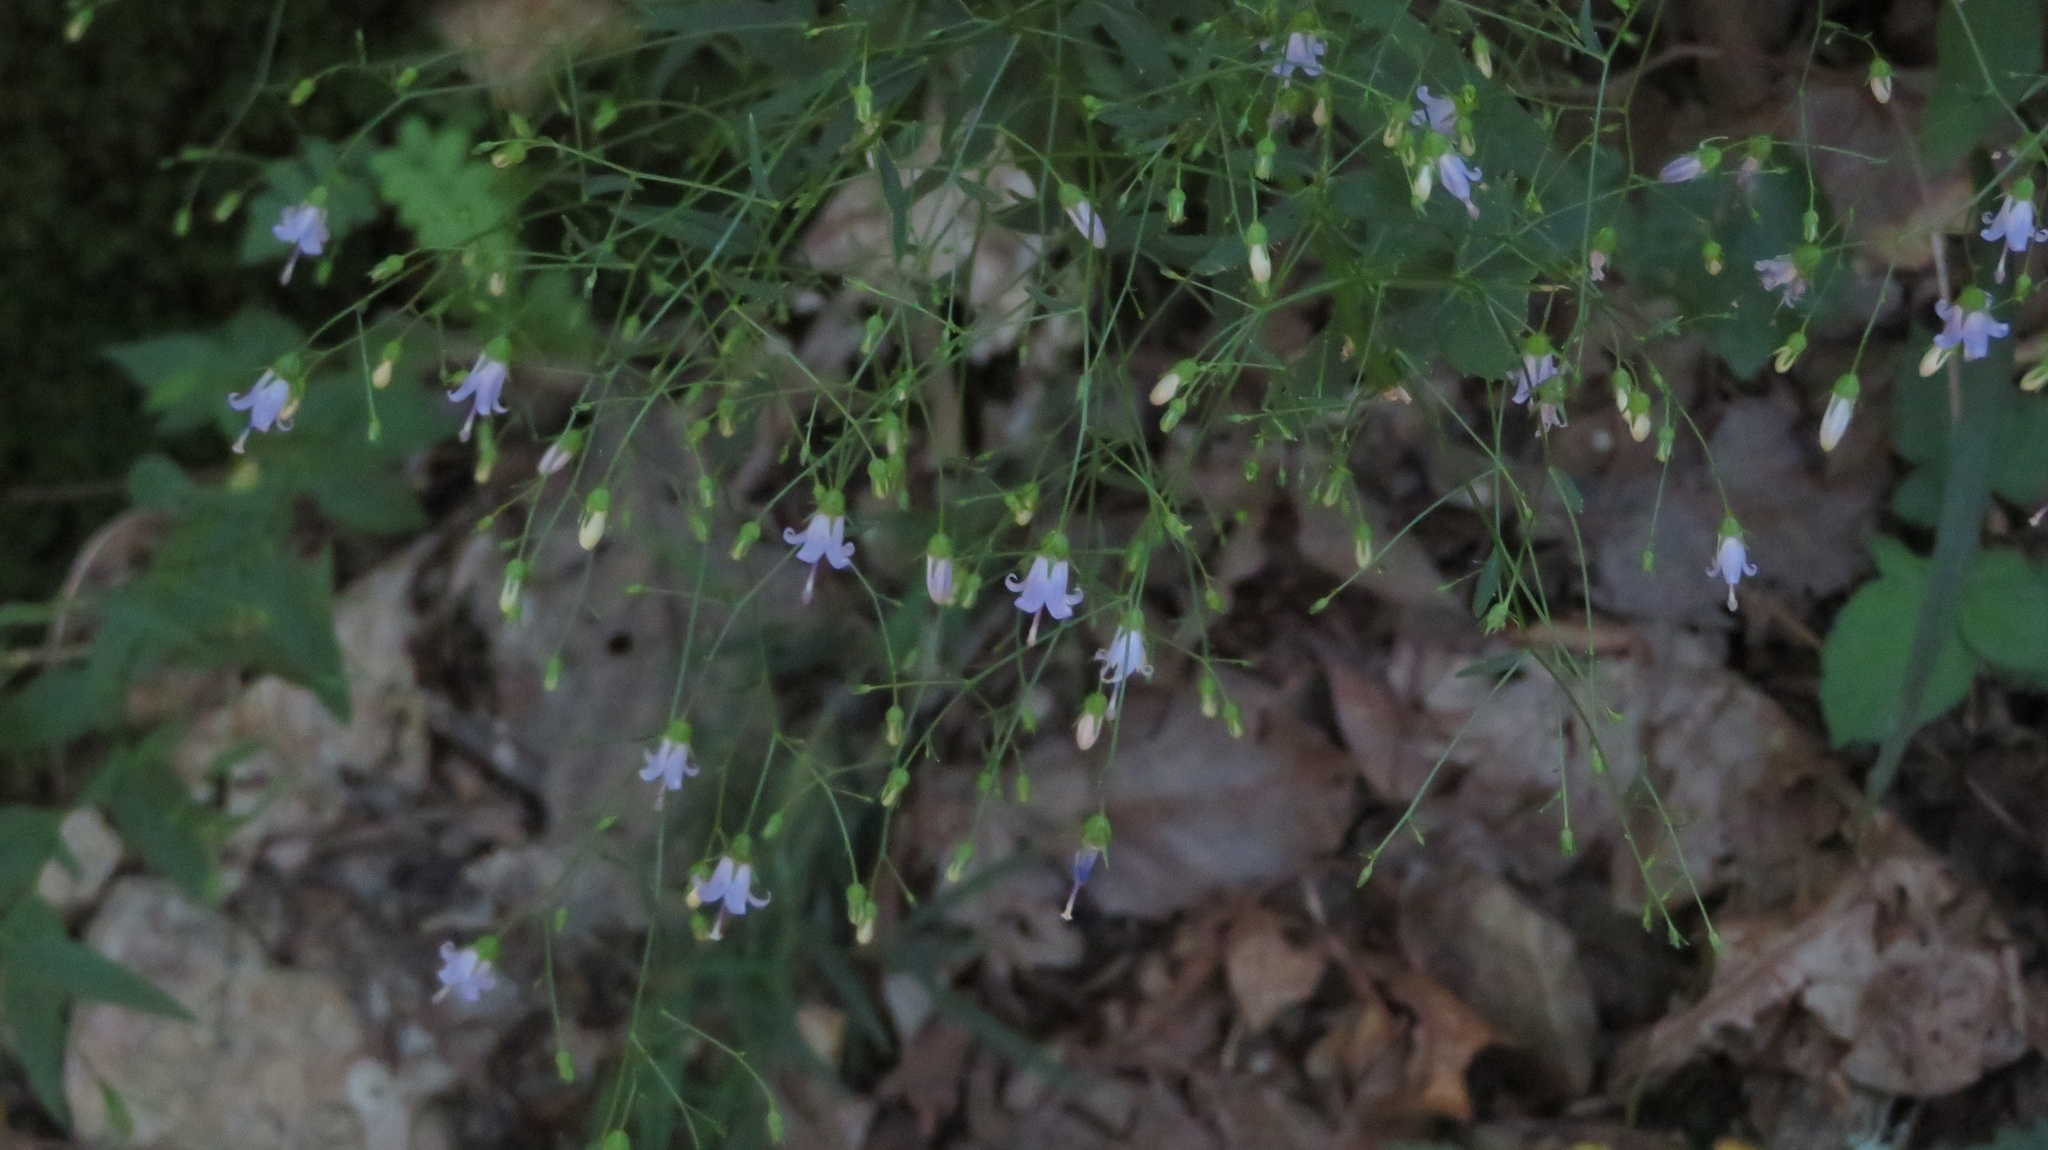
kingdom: Plantae
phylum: Tracheophyta
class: Magnoliopsida
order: Asterales
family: Campanulaceae
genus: Campanula
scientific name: Campanula divaricata
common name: Appalachian bellflower
